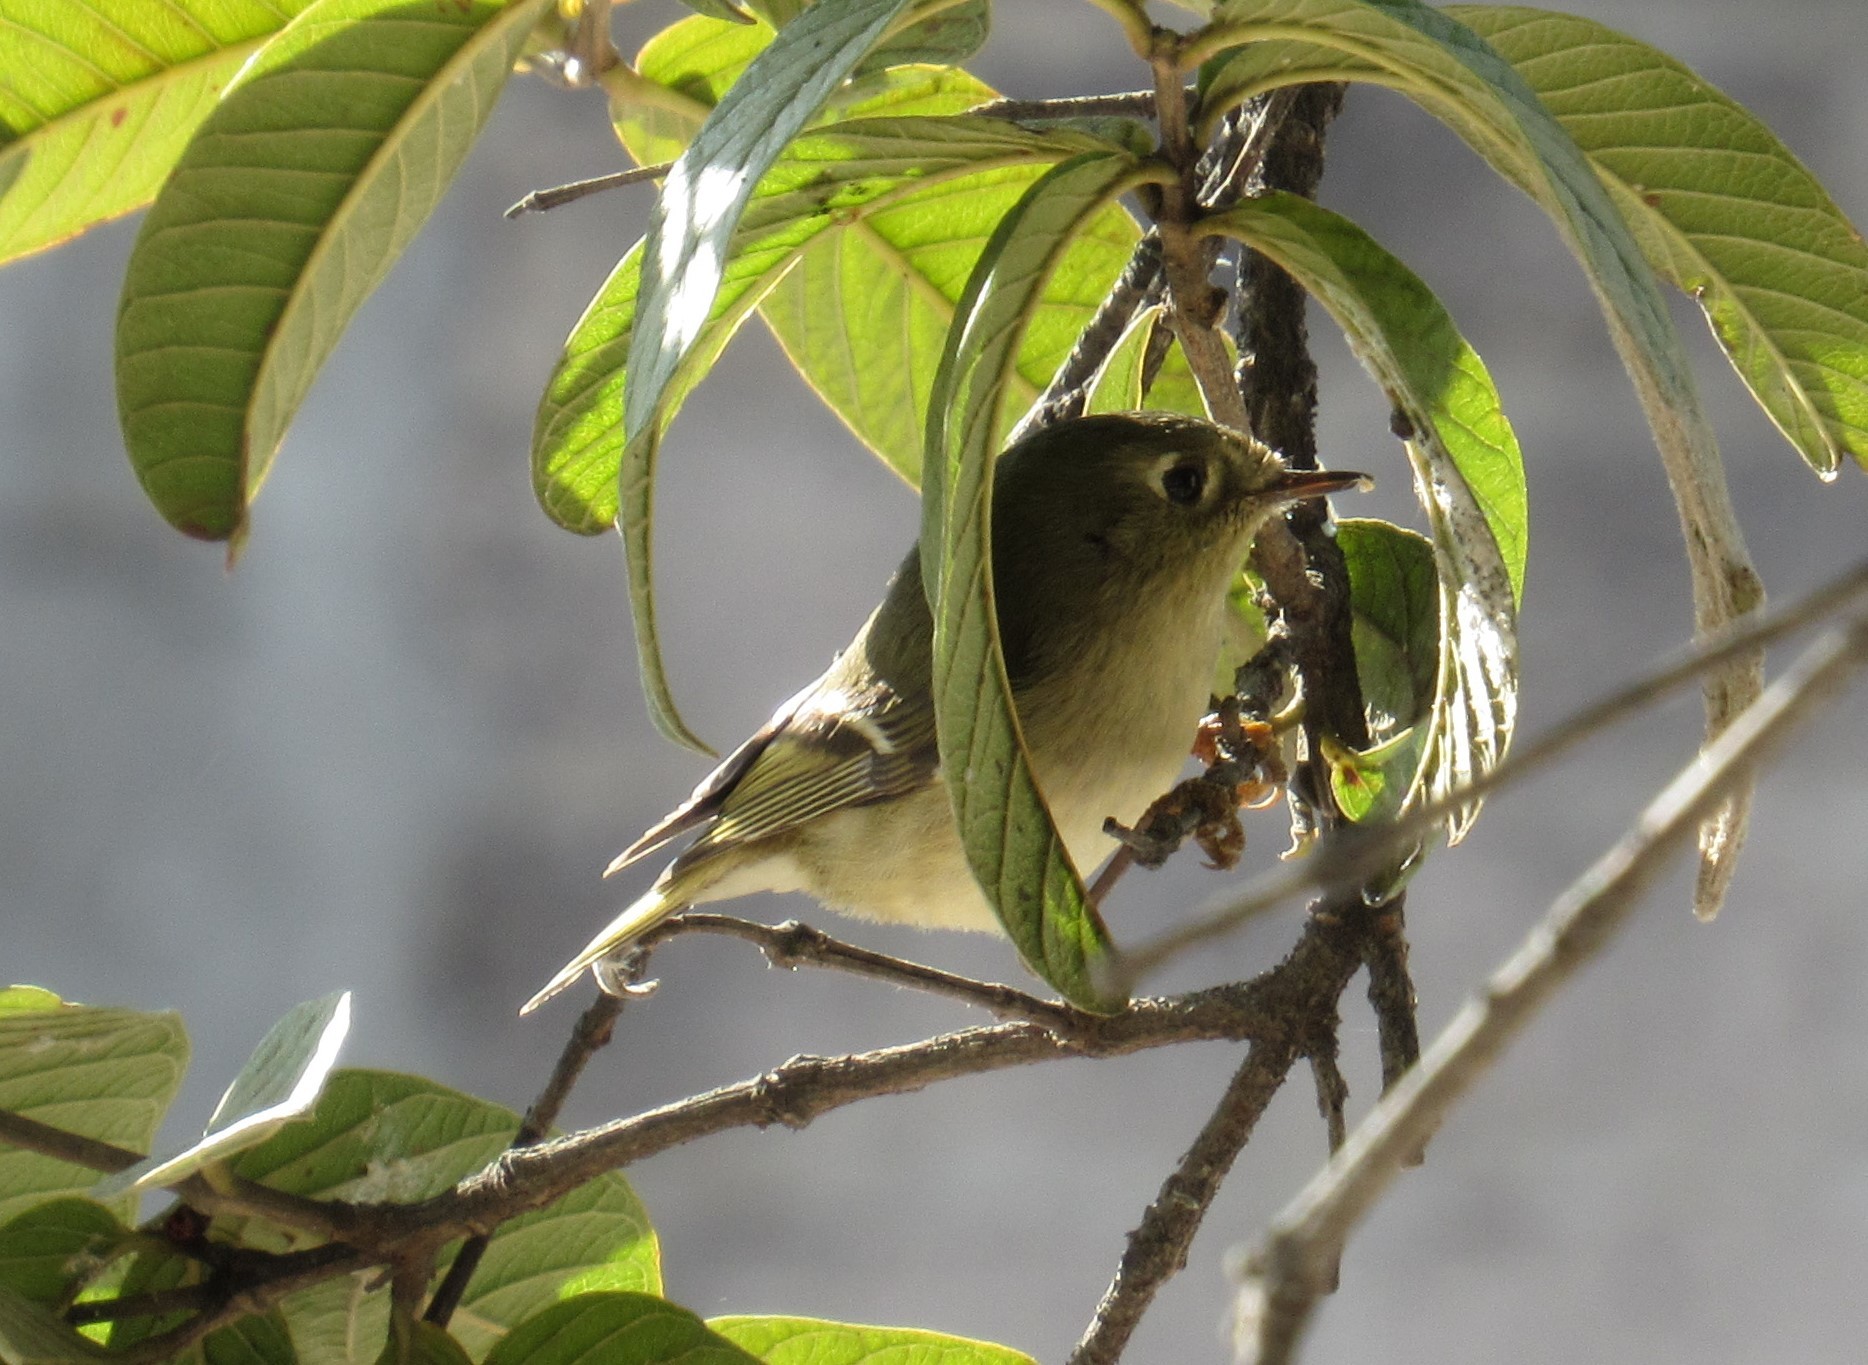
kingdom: Animalia
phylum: Chordata
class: Aves
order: Passeriformes
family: Regulidae
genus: Regulus
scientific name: Regulus calendula
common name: Ruby-crowned kinglet
